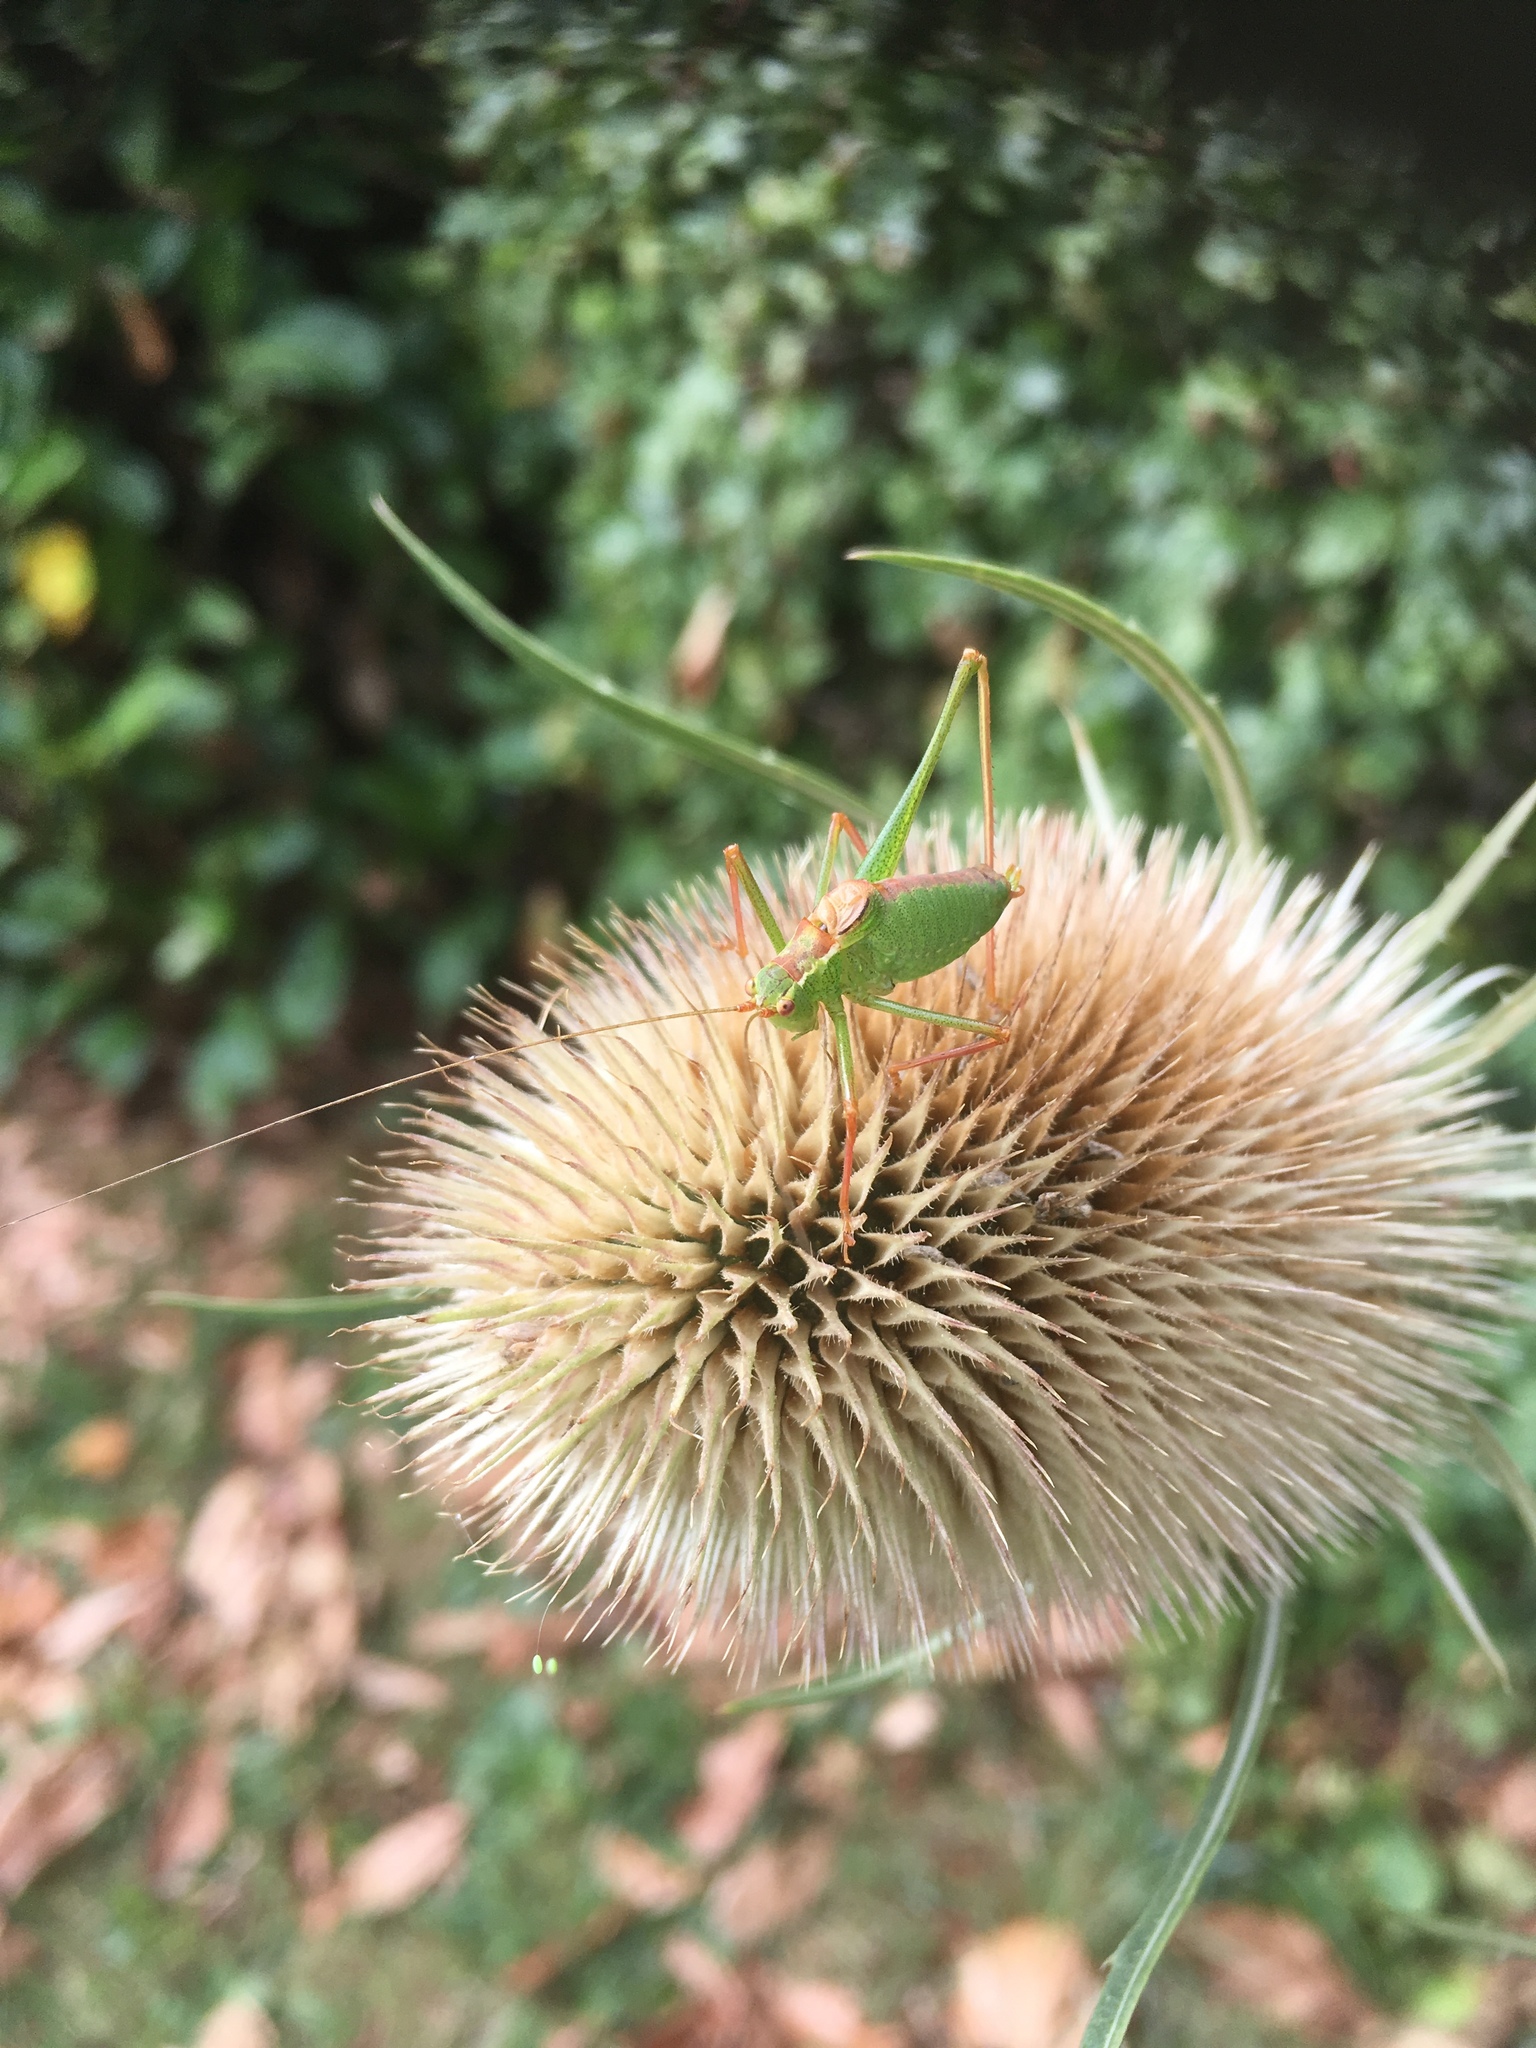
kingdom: Animalia
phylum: Arthropoda
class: Insecta
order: Orthoptera
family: Tettigoniidae
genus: Leptophyes
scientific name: Leptophyes punctatissima
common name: Speckled bush-cricket
